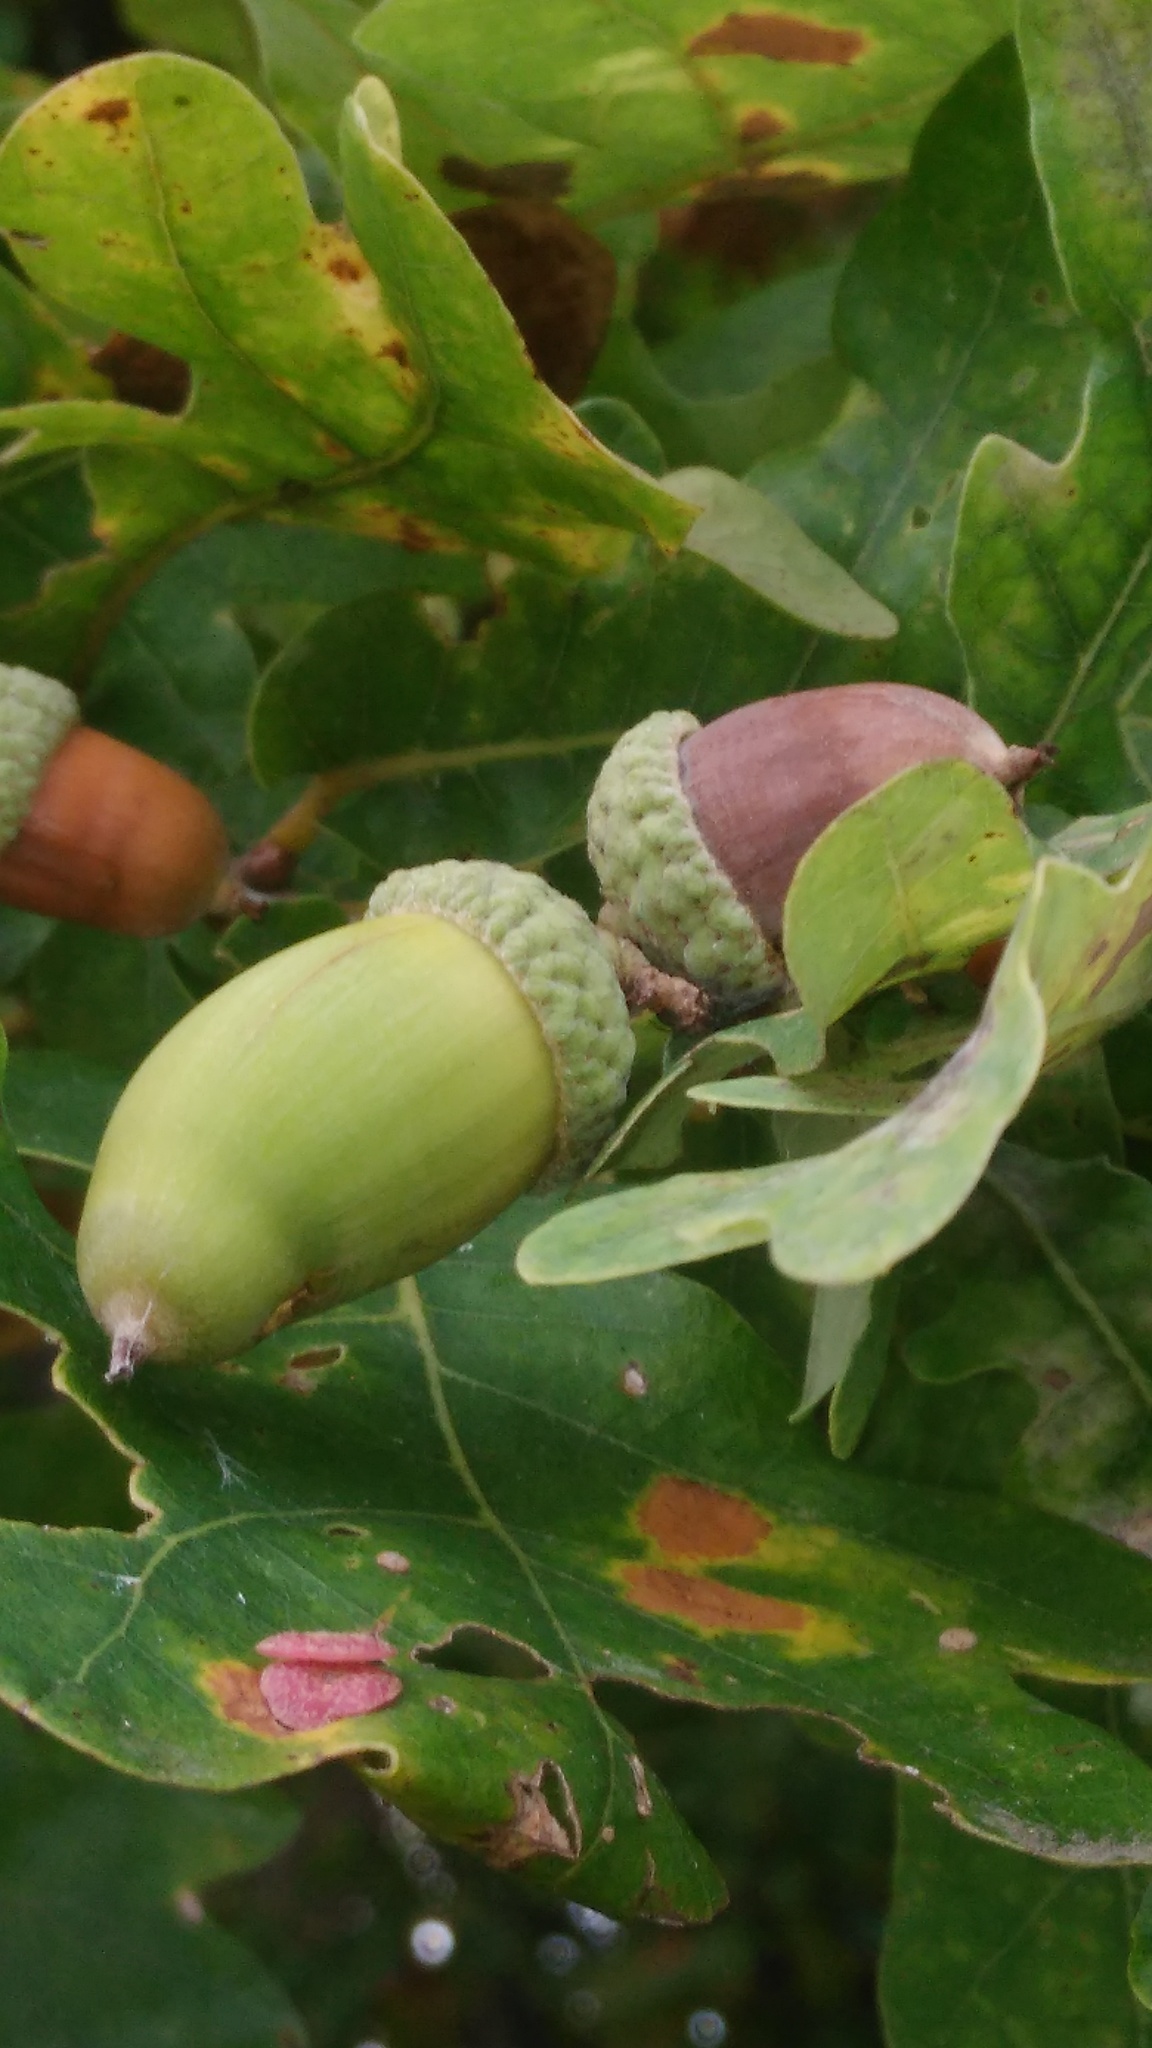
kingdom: Plantae
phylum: Tracheophyta
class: Magnoliopsida
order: Fagales
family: Fagaceae
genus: Quercus
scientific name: Quercus robur
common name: Pedunculate oak
